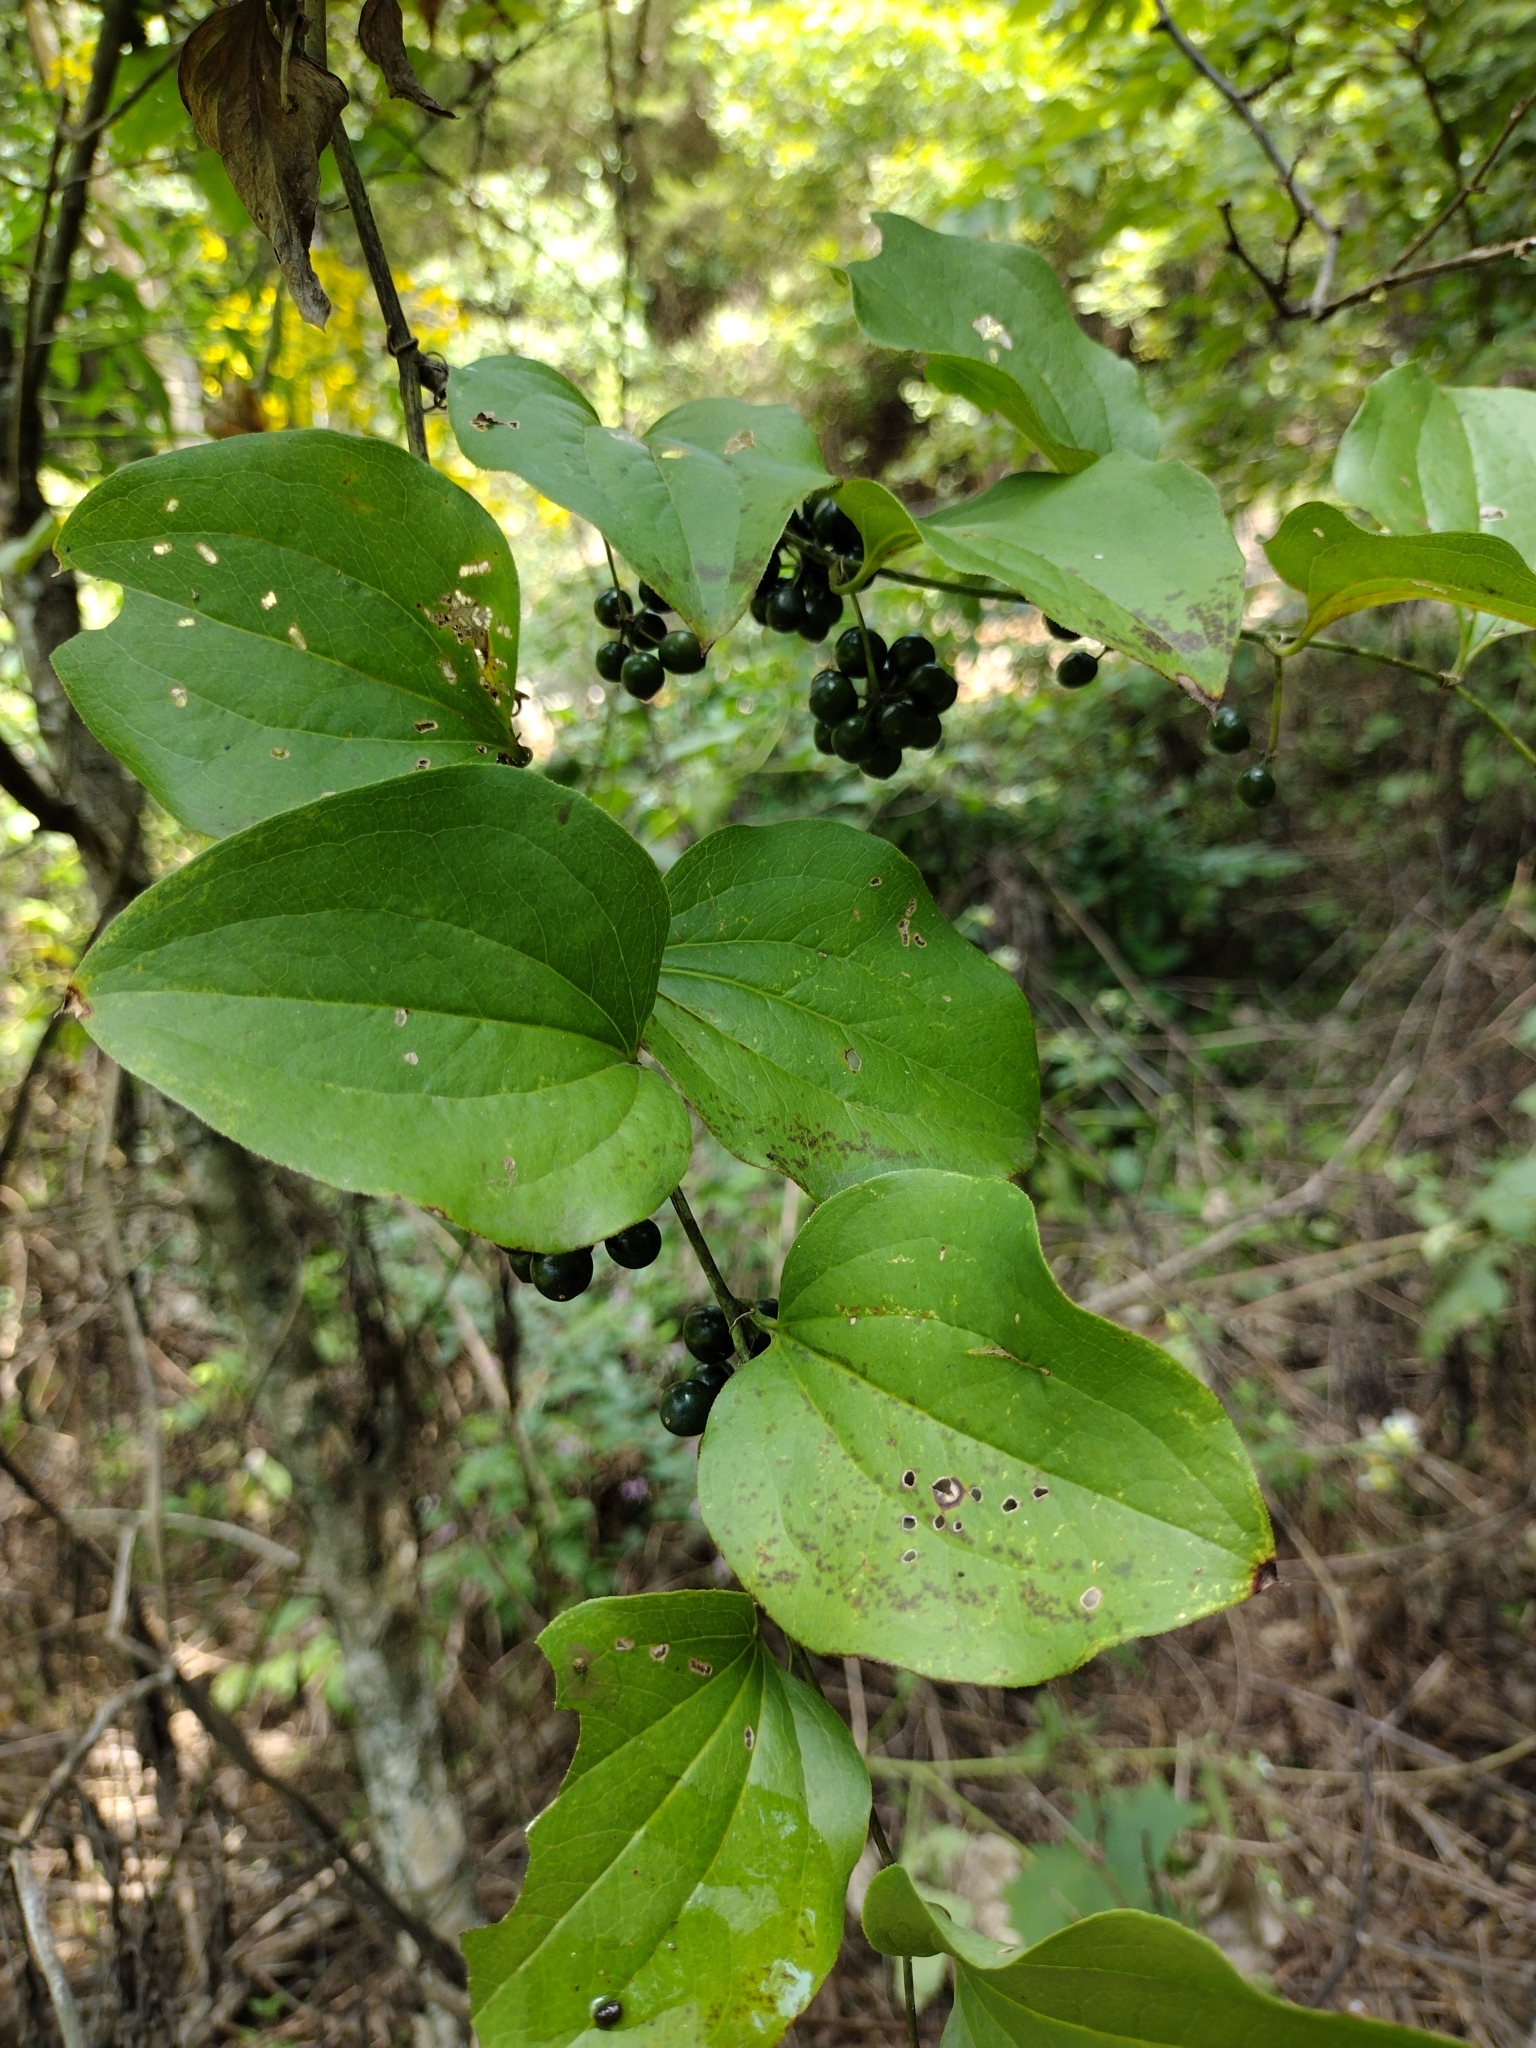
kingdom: Plantae
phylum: Tracheophyta
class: Liliopsida
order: Liliales
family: Smilacaceae
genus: Smilax
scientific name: Smilax tamnoides
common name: Hellfetter
